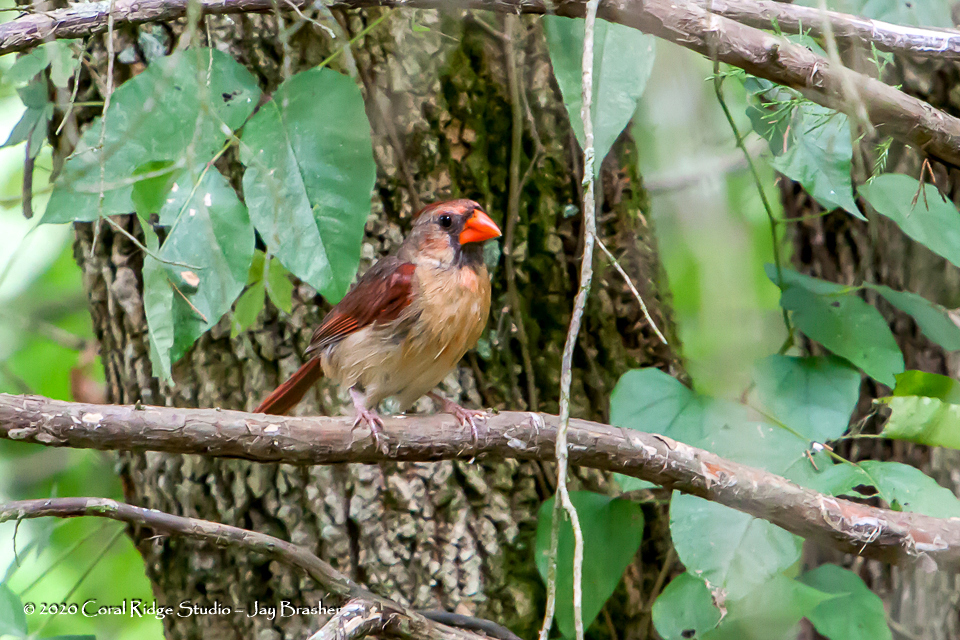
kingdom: Animalia
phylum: Chordata
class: Aves
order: Passeriformes
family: Cardinalidae
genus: Cardinalis
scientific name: Cardinalis cardinalis
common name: Northern cardinal
